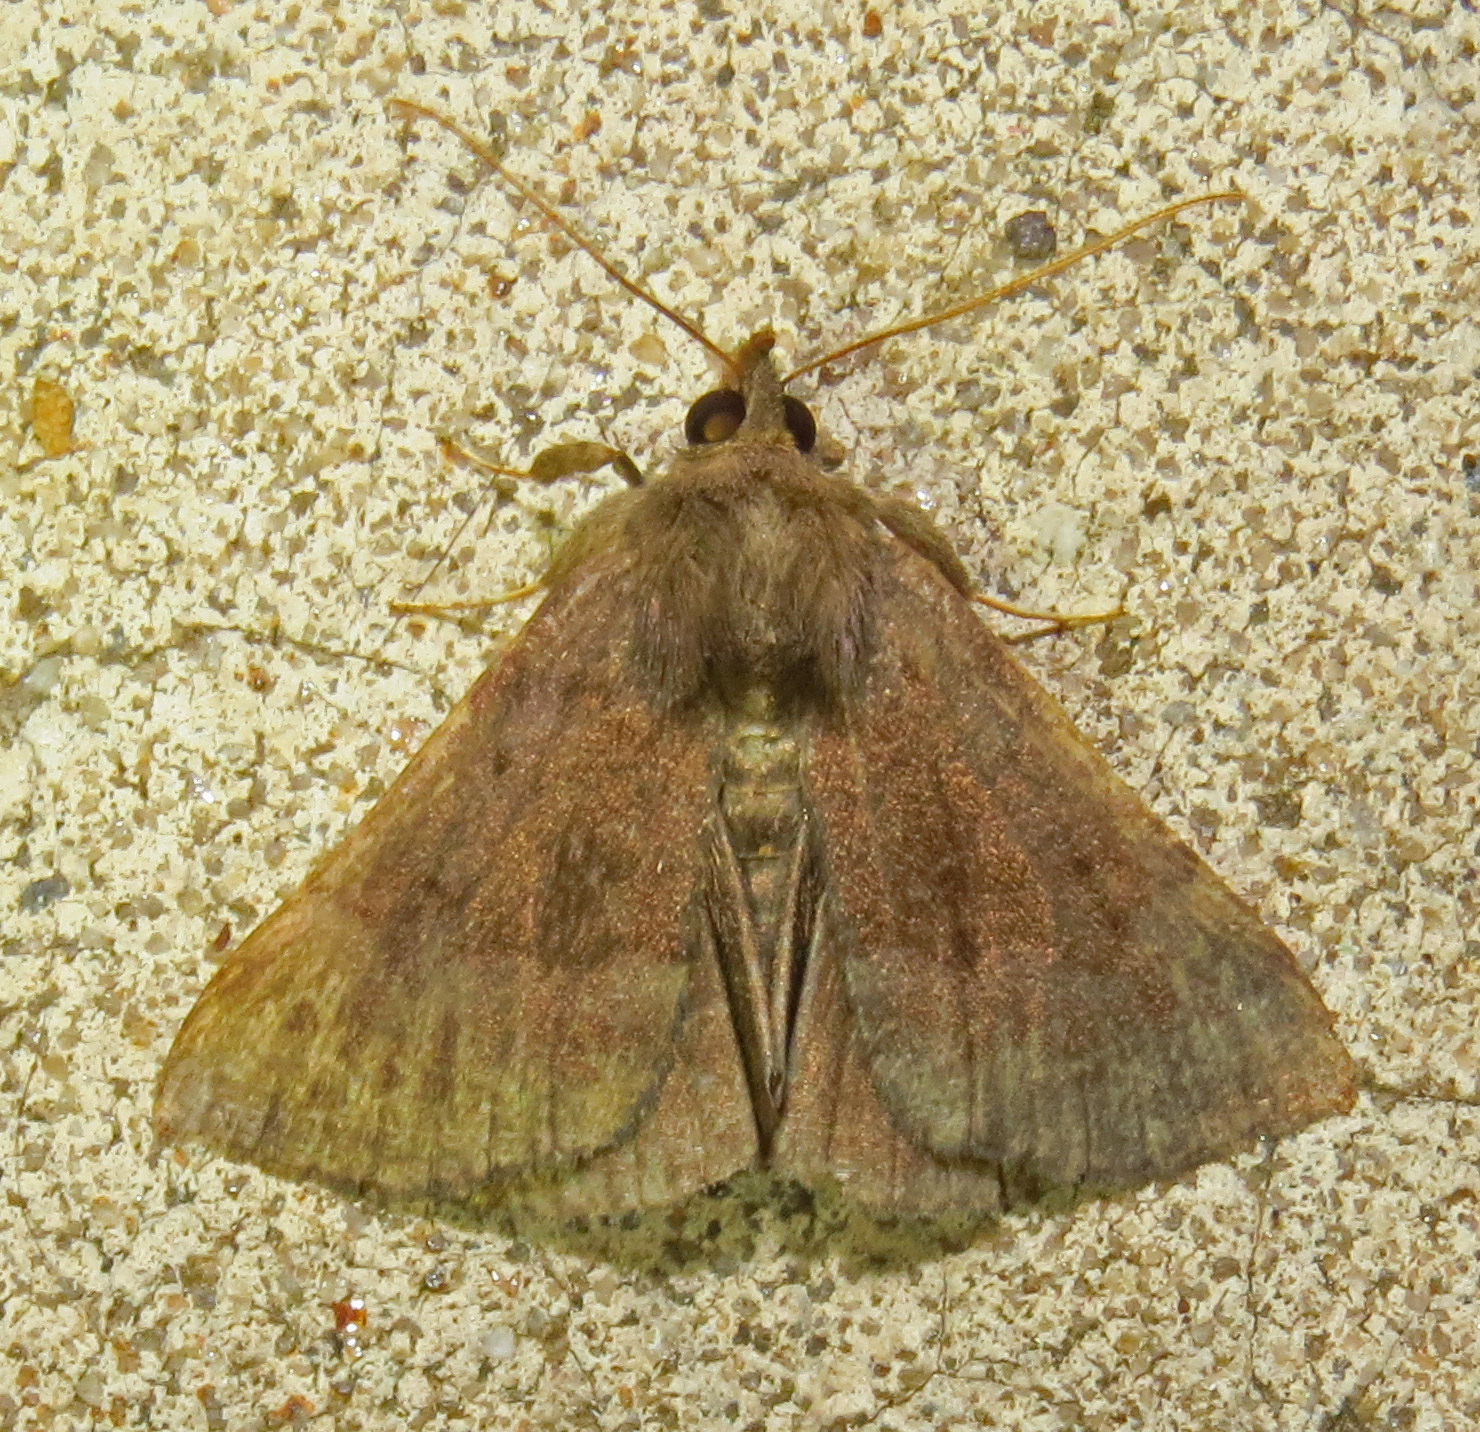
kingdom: Animalia
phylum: Arthropoda
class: Insecta
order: Lepidoptera
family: Erebidae
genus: Hypena
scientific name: Hypena madefactalis
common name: Gray-edged snout
